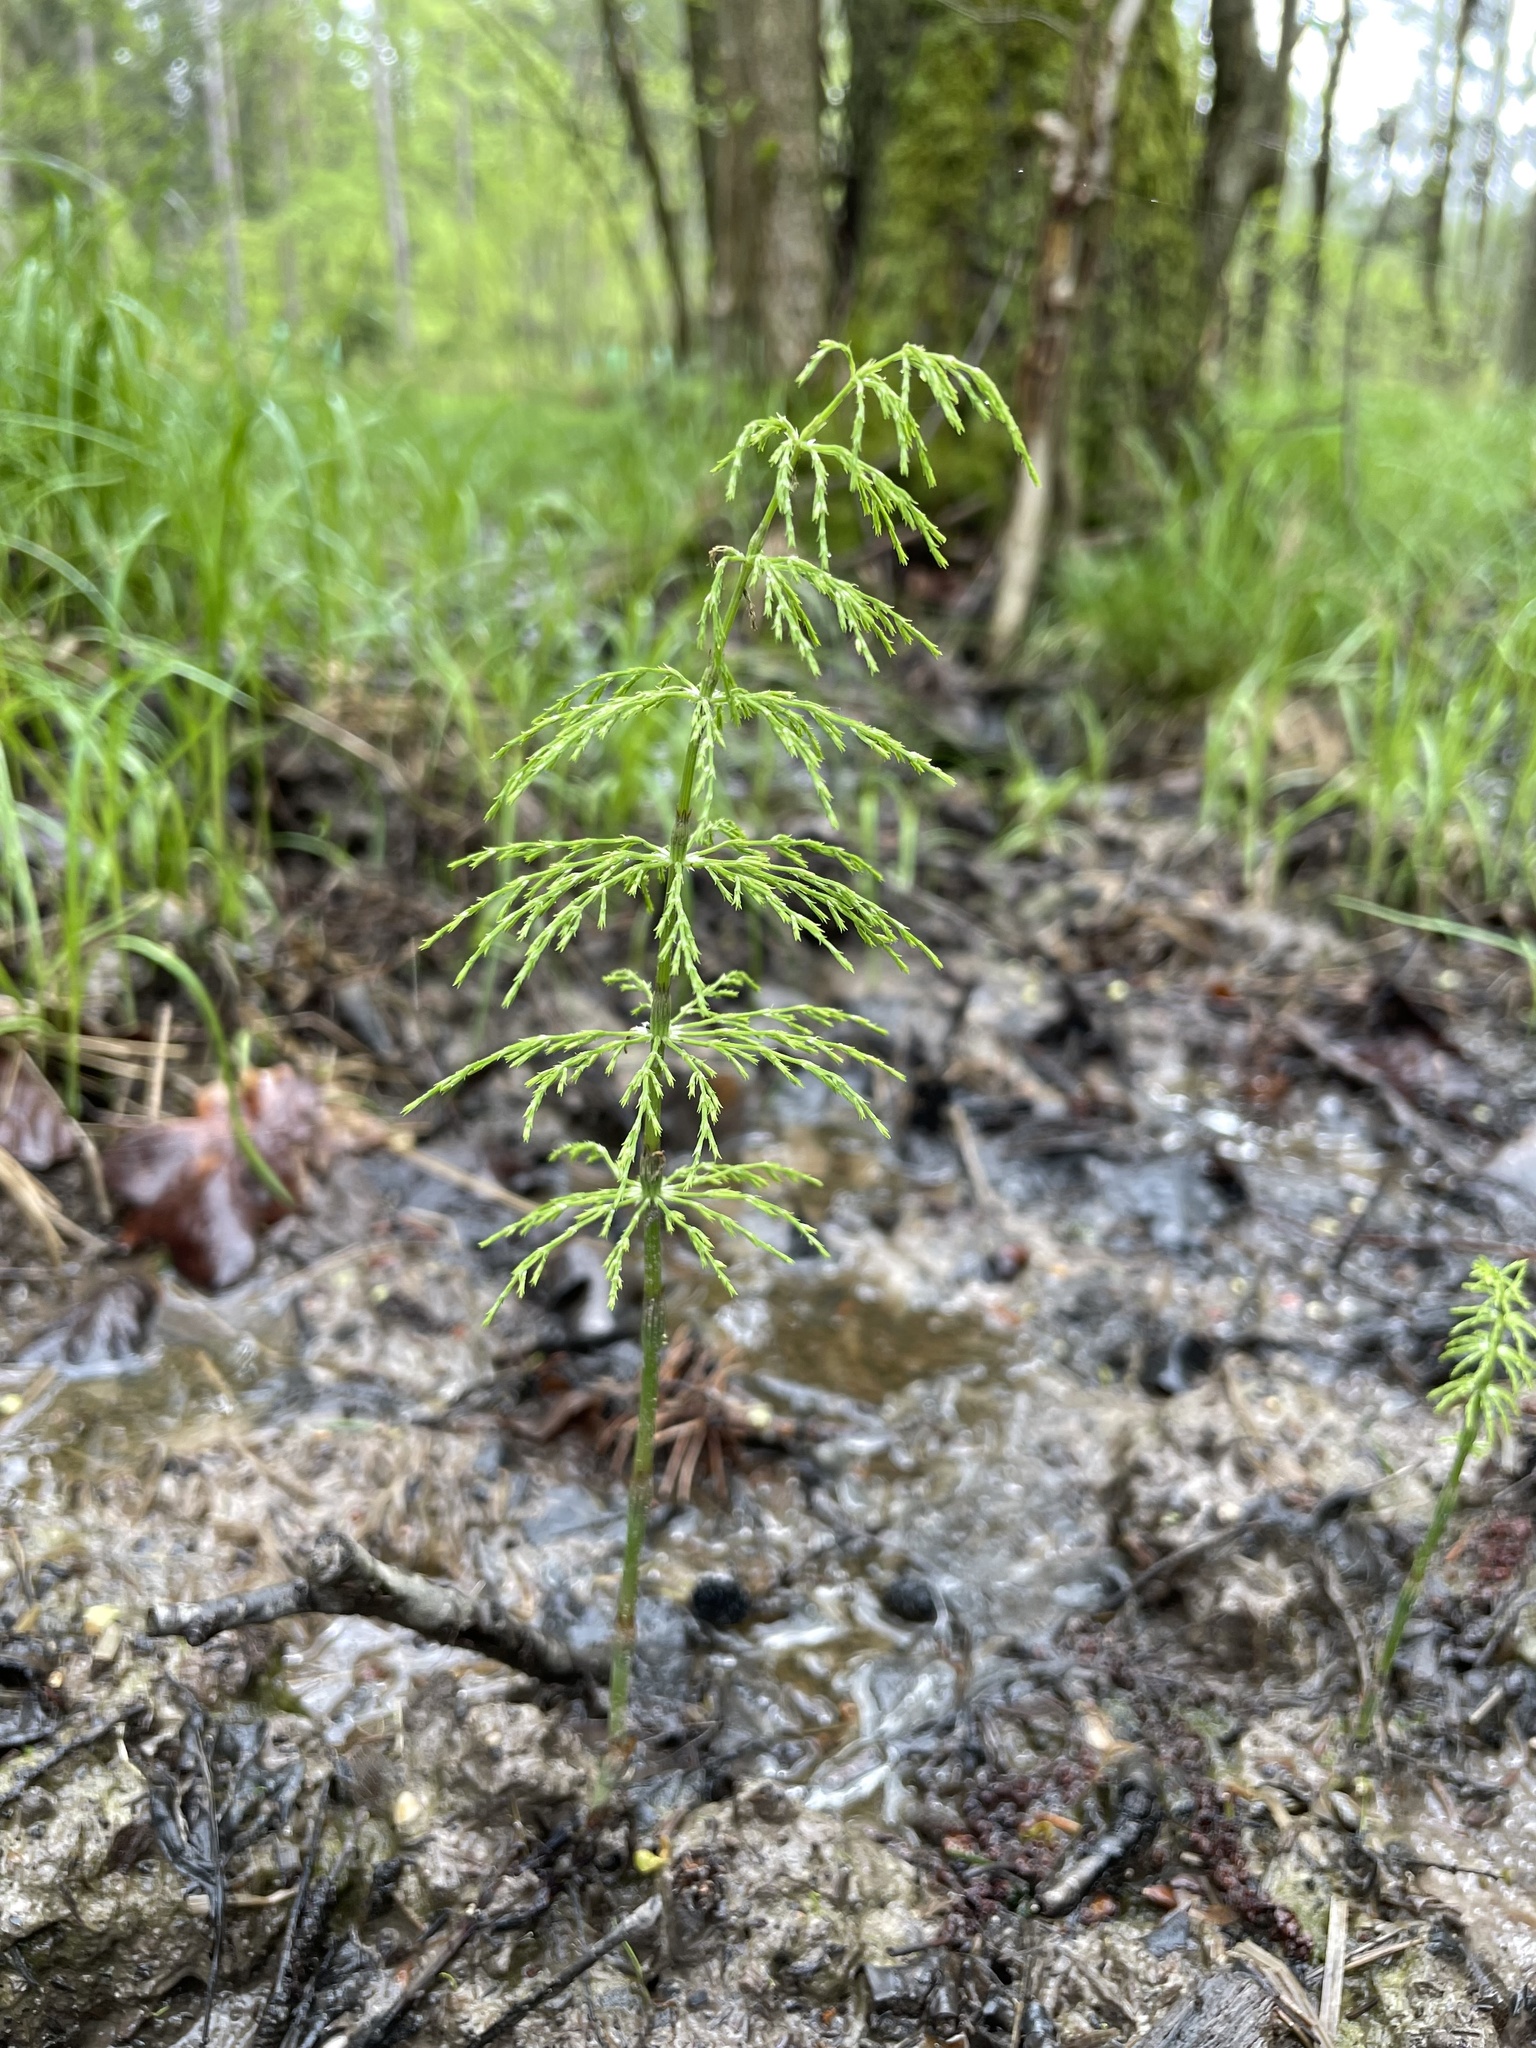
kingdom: Plantae
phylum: Tracheophyta
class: Polypodiopsida
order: Equisetales
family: Equisetaceae
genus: Equisetum
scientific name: Equisetum sylvaticum
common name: Wood horsetail
